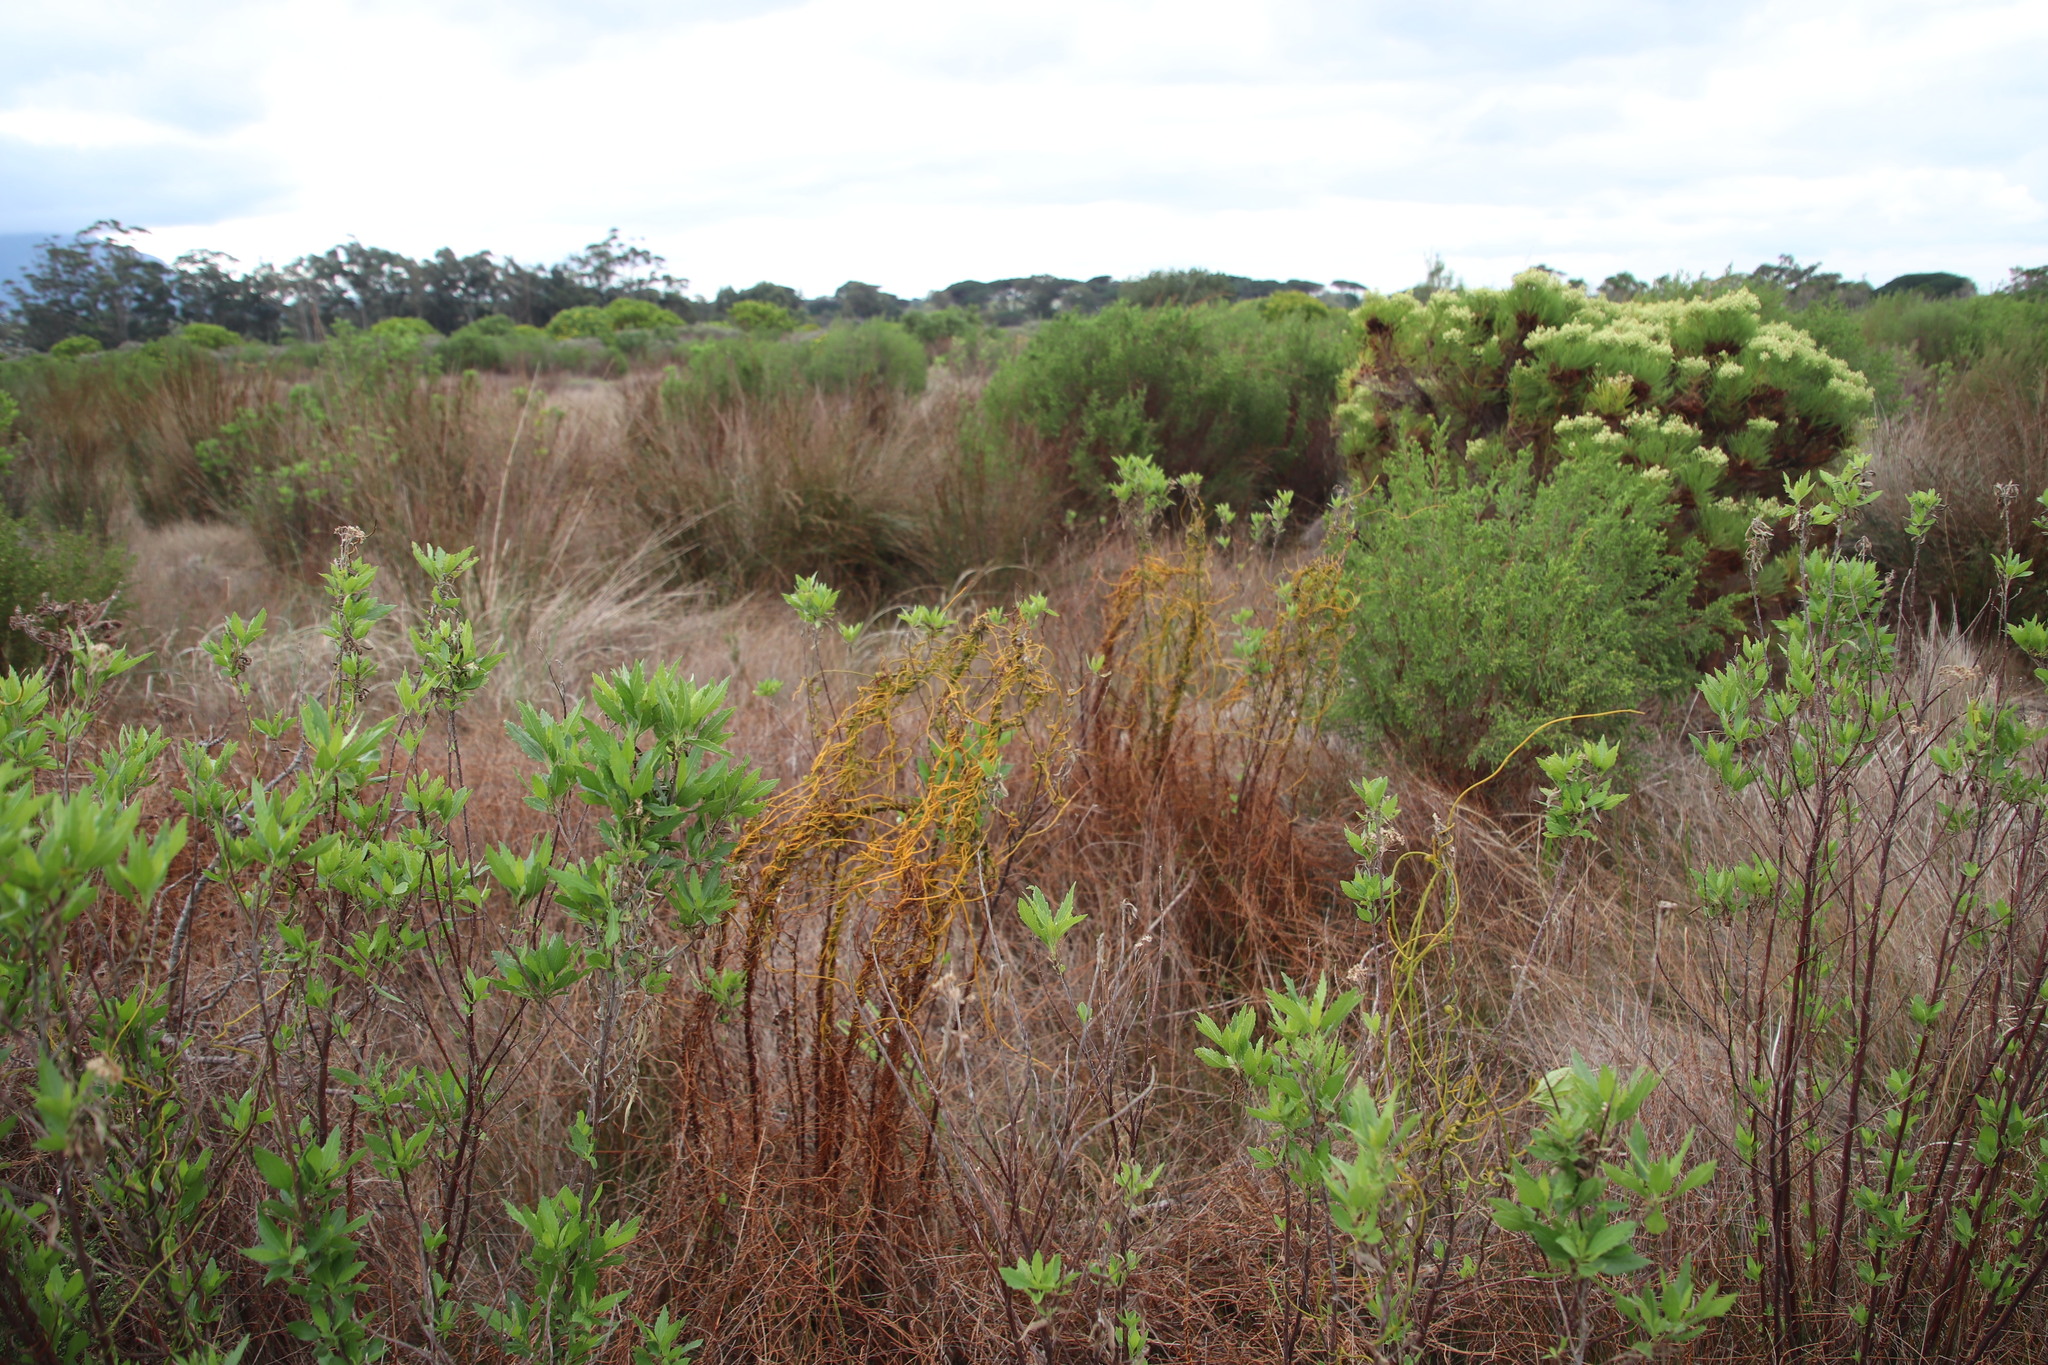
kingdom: Plantae
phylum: Tracheophyta
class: Magnoliopsida
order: Laurales
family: Lauraceae
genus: Cassytha
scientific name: Cassytha ciliolata
